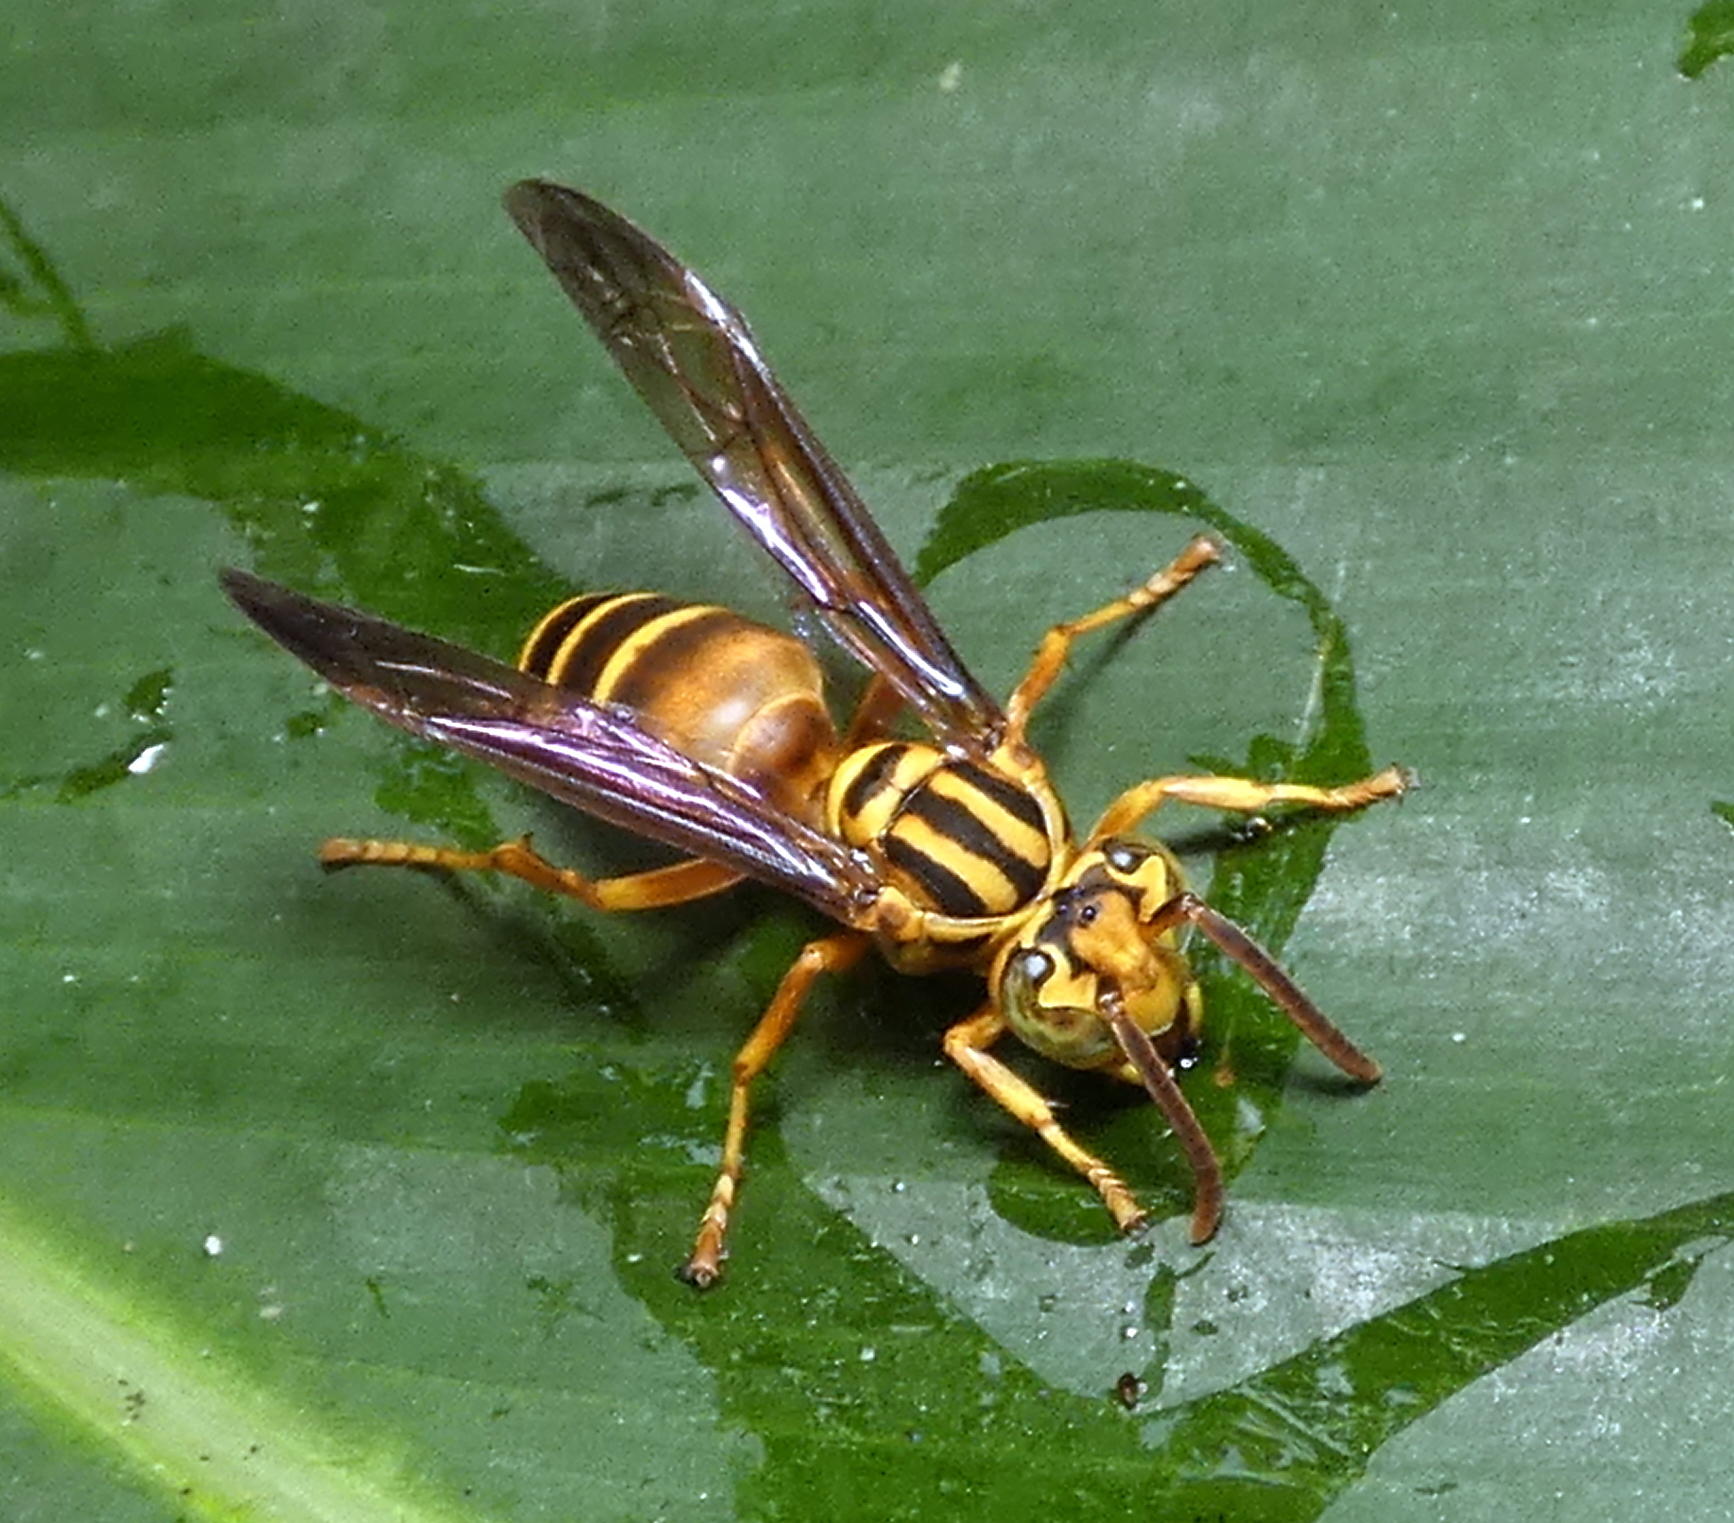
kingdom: Animalia
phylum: Arthropoda
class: Insecta
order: Hymenoptera
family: Vespidae
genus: Parachartergus
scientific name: Parachartergus vespiceps
